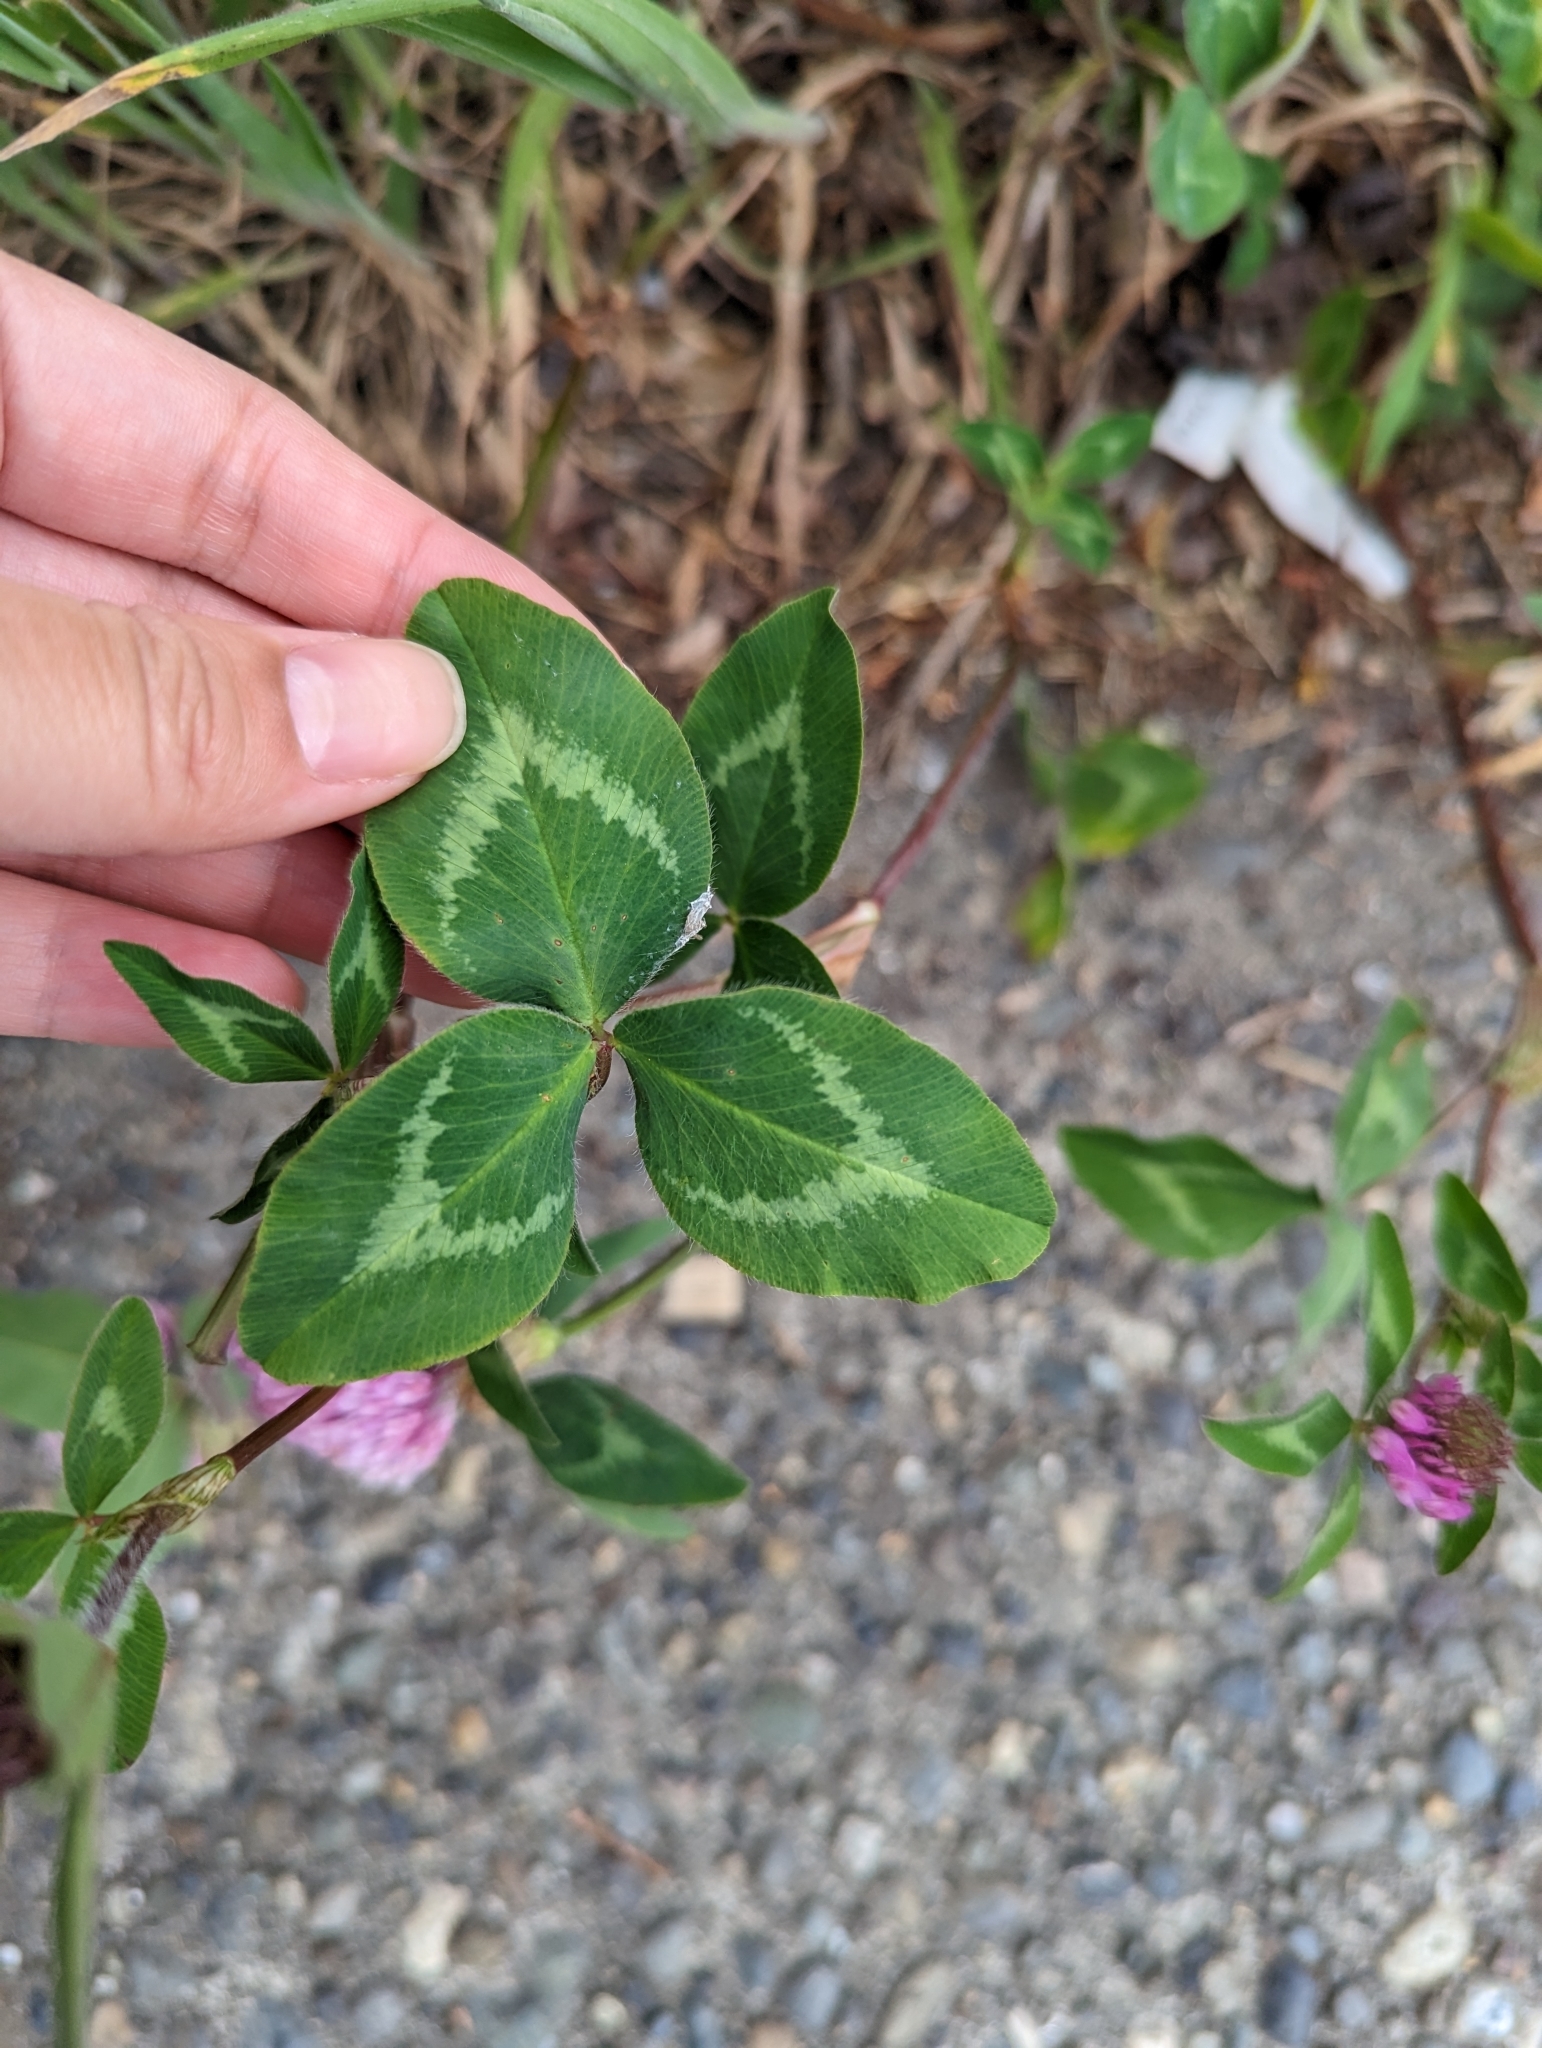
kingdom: Plantae
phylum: Tracheophyta
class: Magnoliopsida
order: Fabales
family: Fabaceae
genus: Trifolium
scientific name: Trifolium pratense
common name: Red clover
